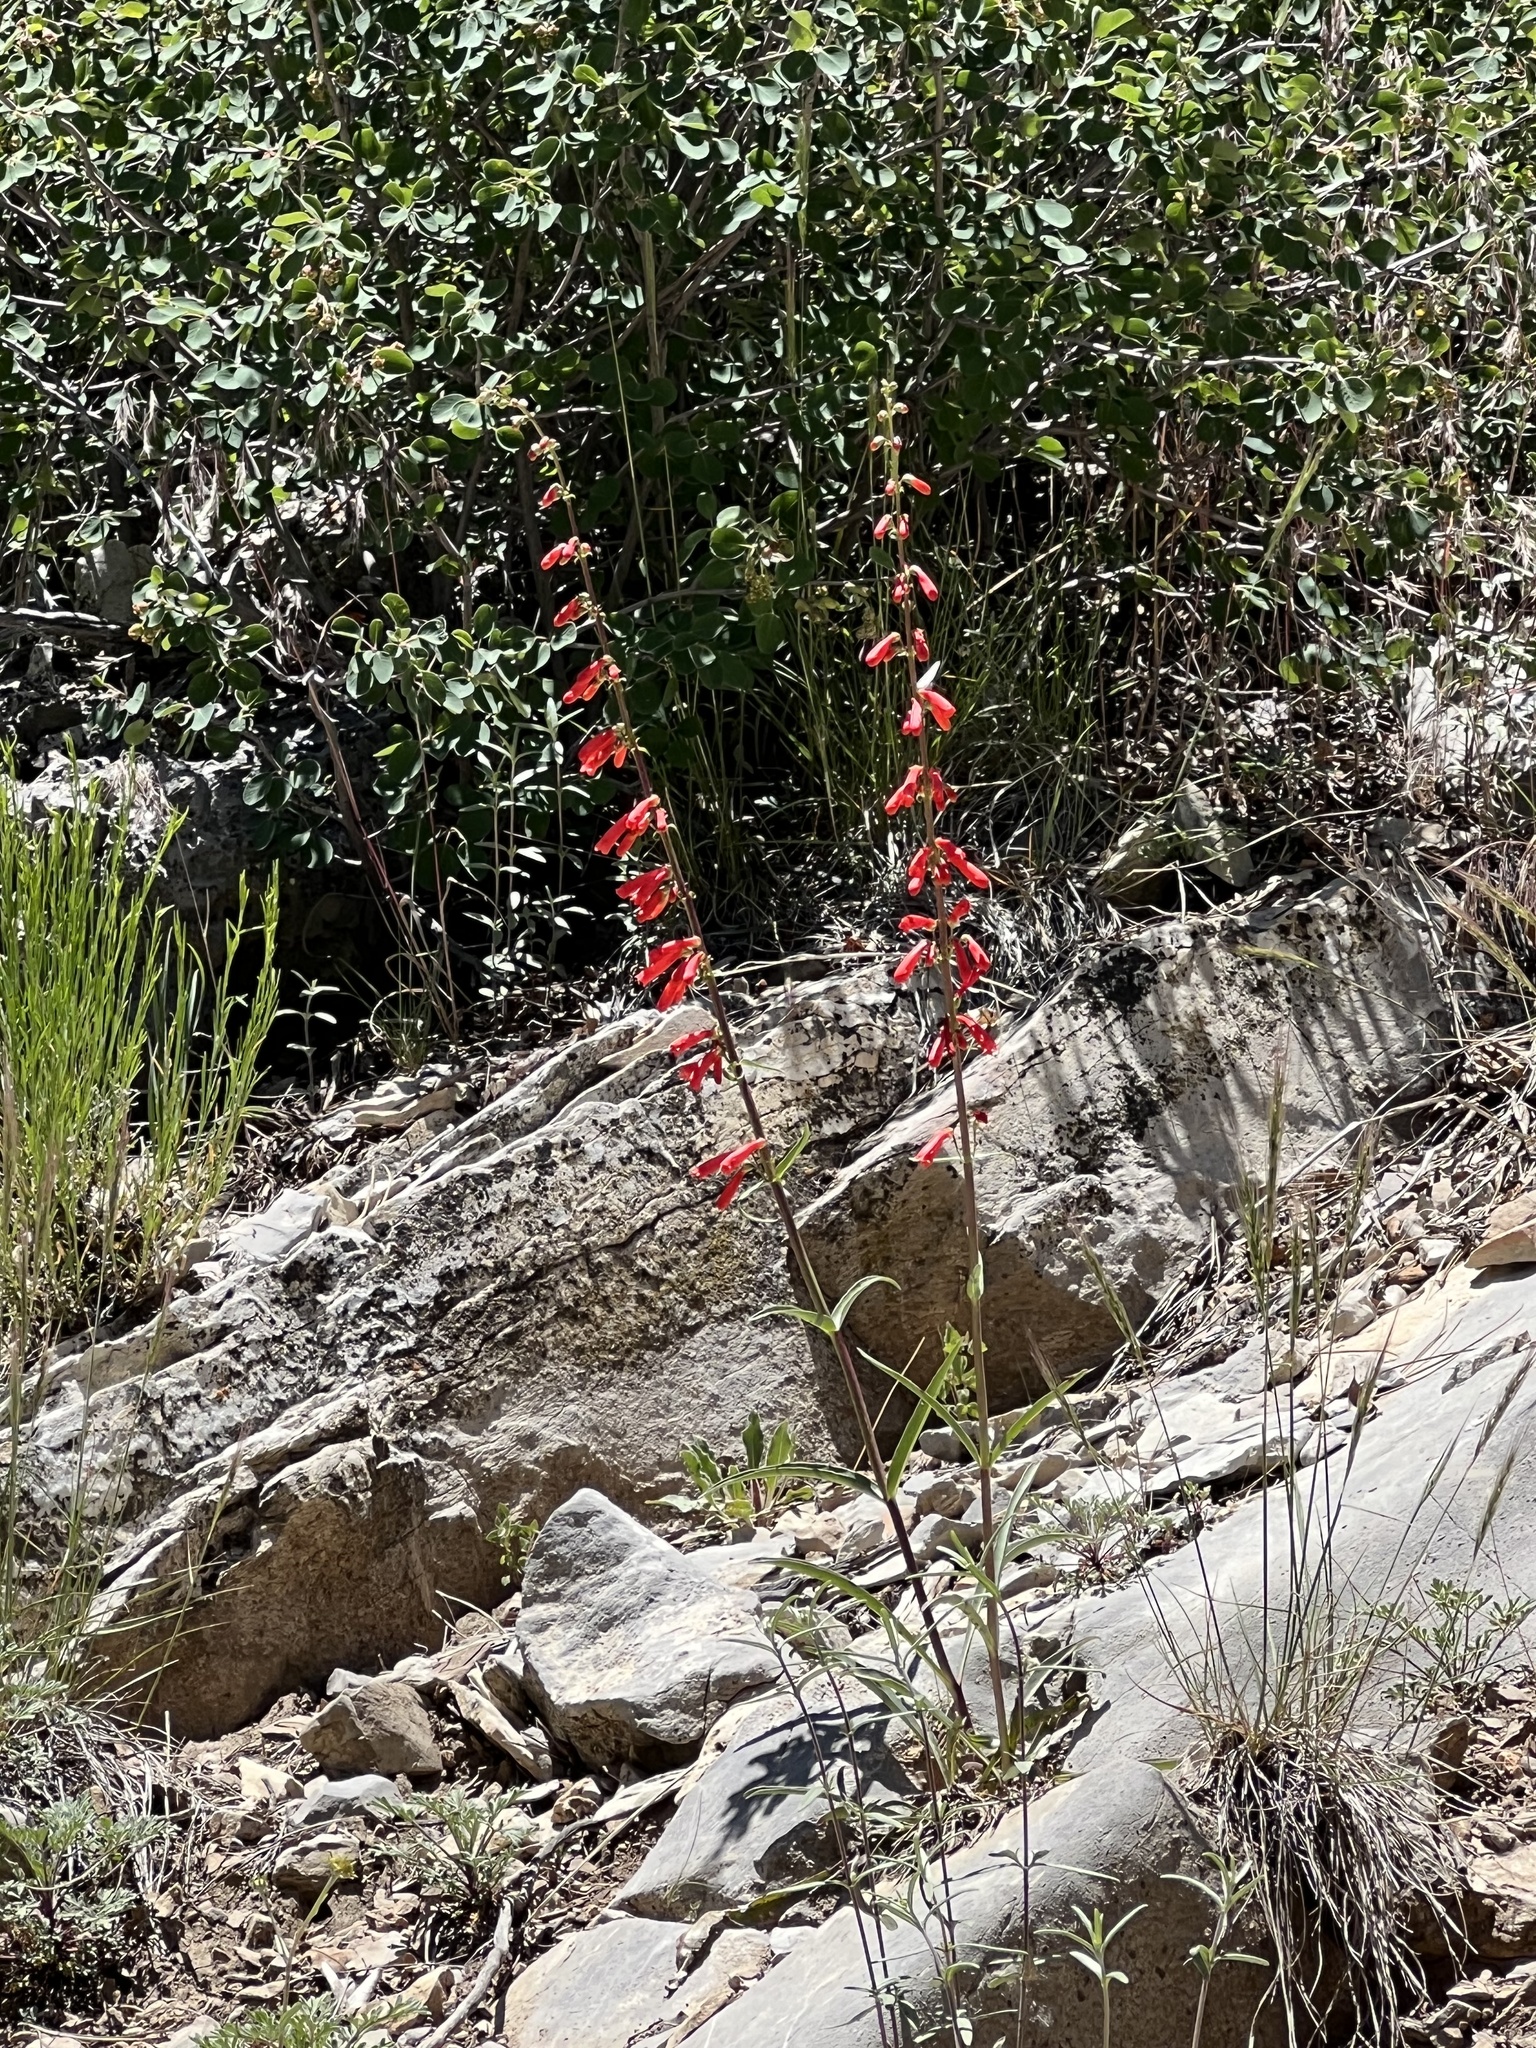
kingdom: Plantae
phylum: Tracheophyta
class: Magnoliopsida
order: Lamiales
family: Plantaginaceae
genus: Penstemon
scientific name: Penstemon eatonii
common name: Eaton's penstemon
